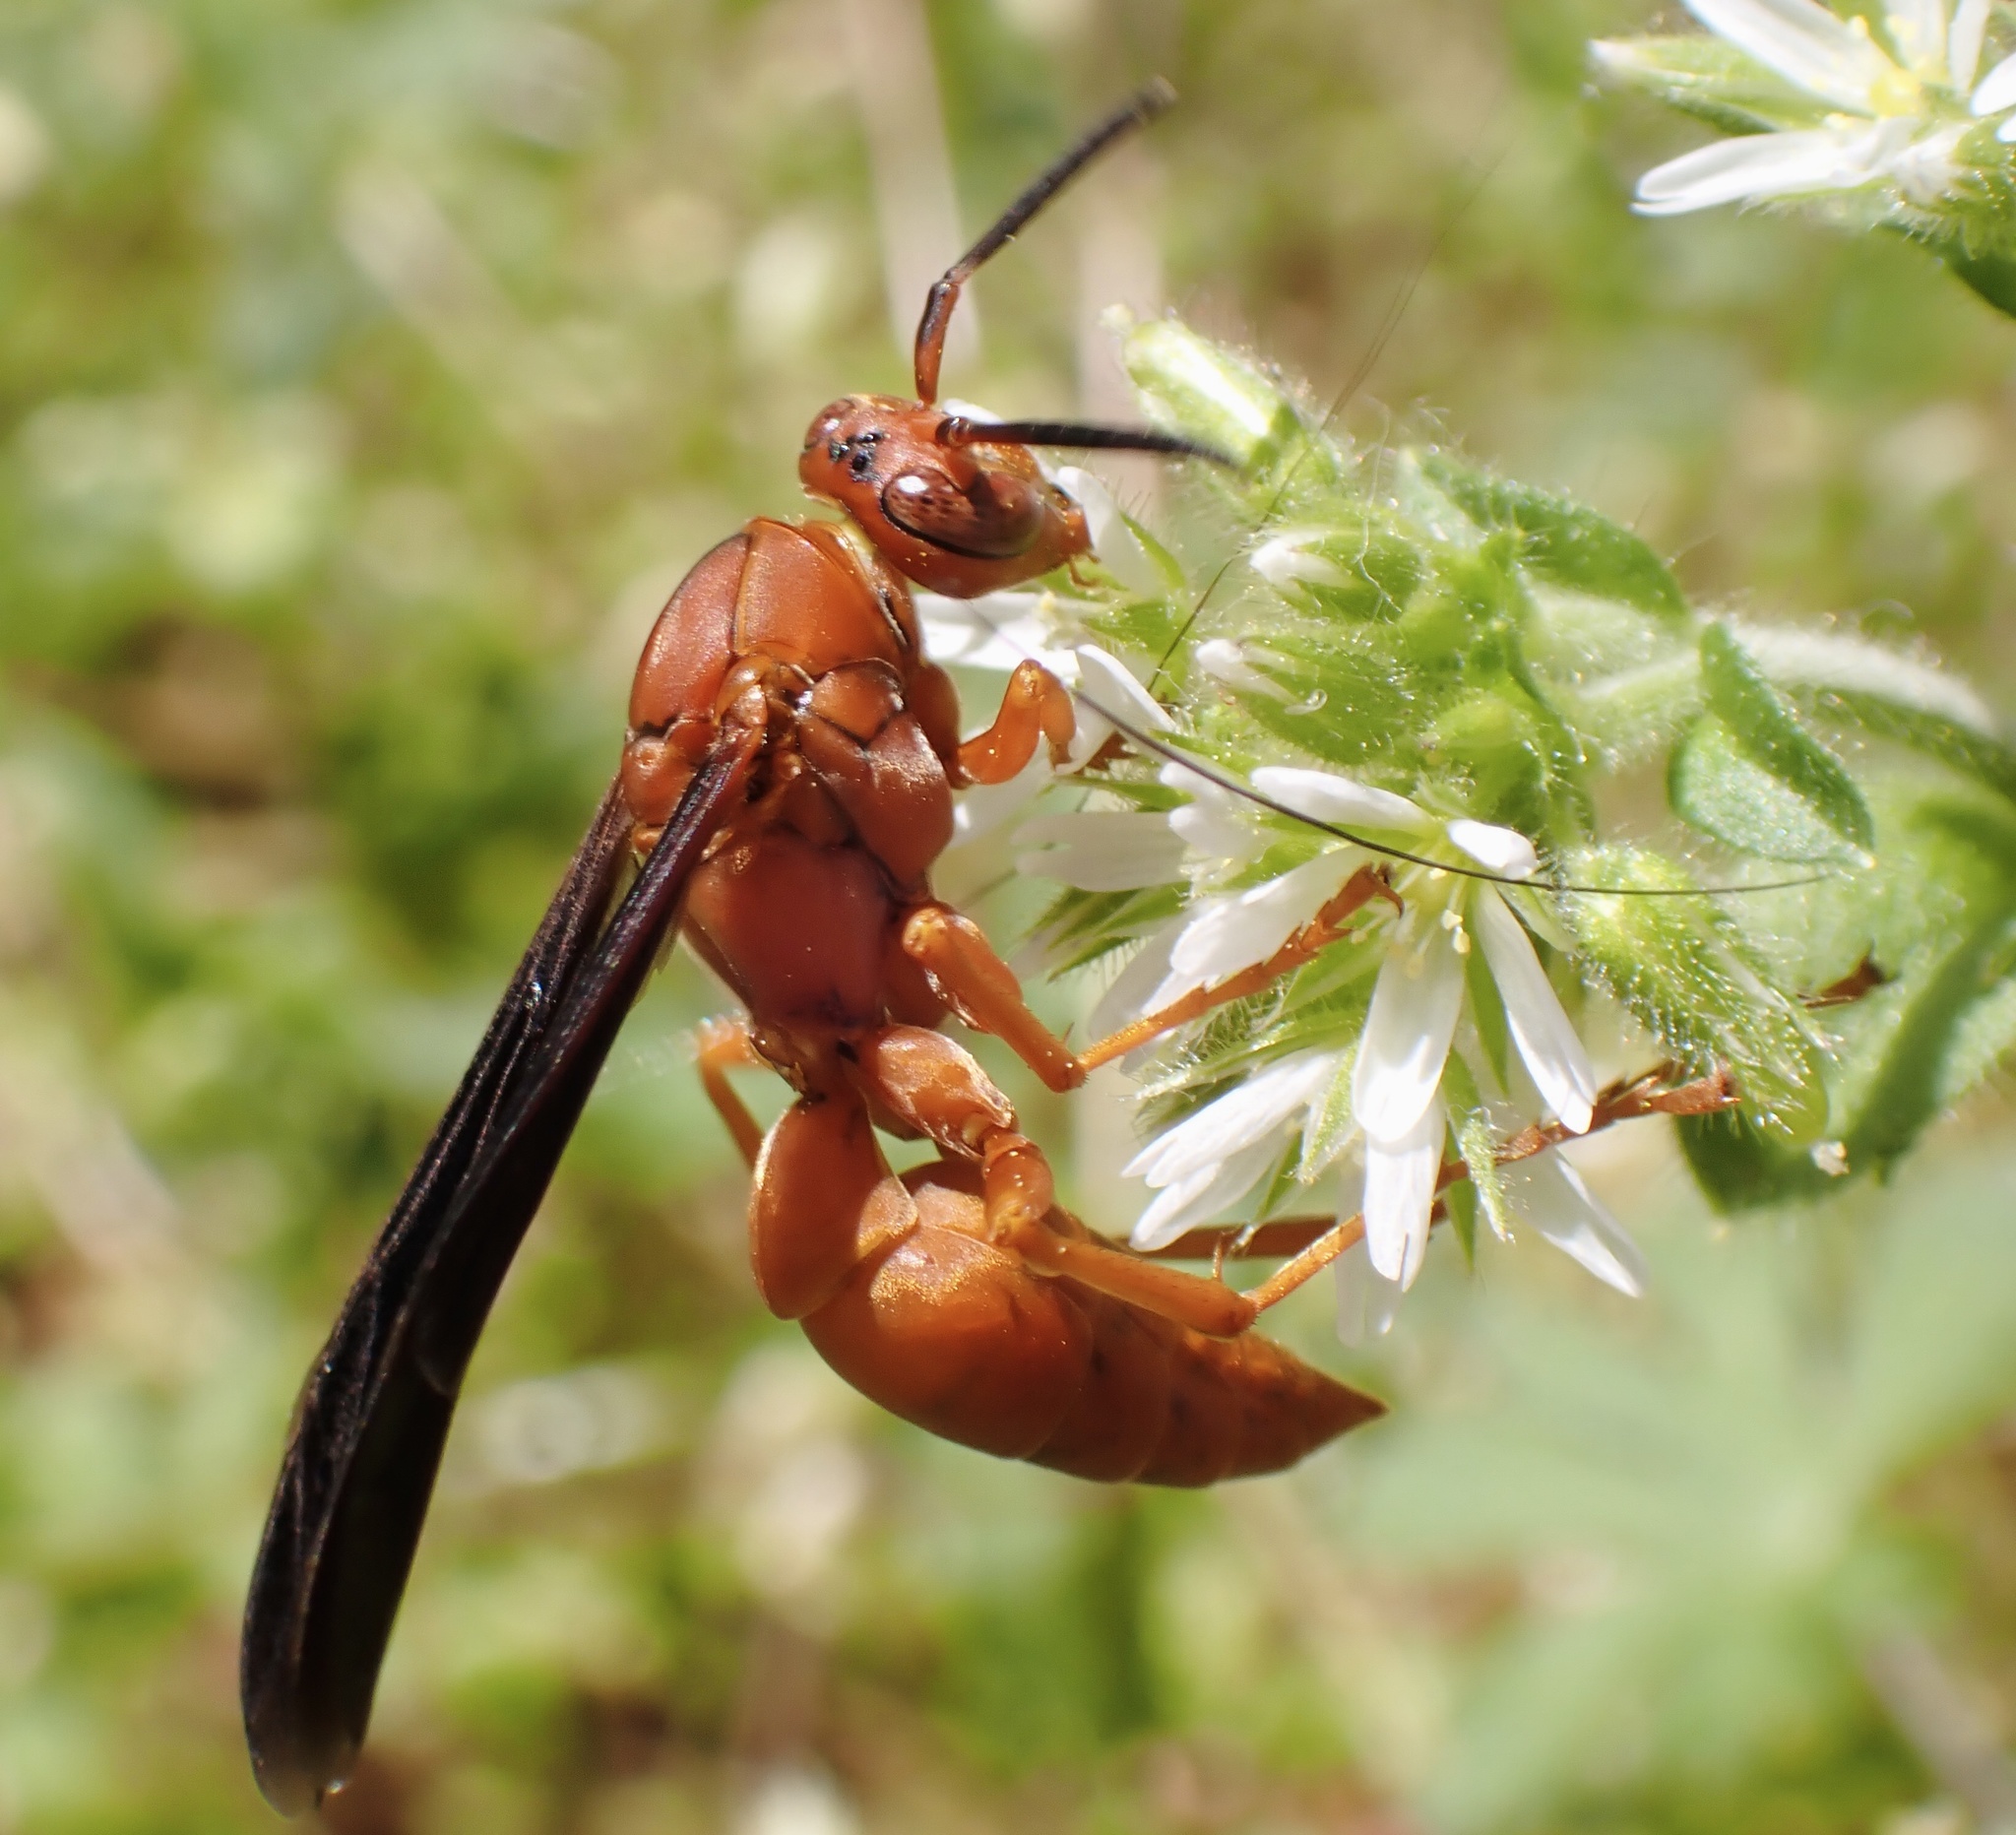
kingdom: Animalia
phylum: Arthropoda
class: Insecta
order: Hymenoptera
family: Eumenidae
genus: Polistes
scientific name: Polistes carolina
